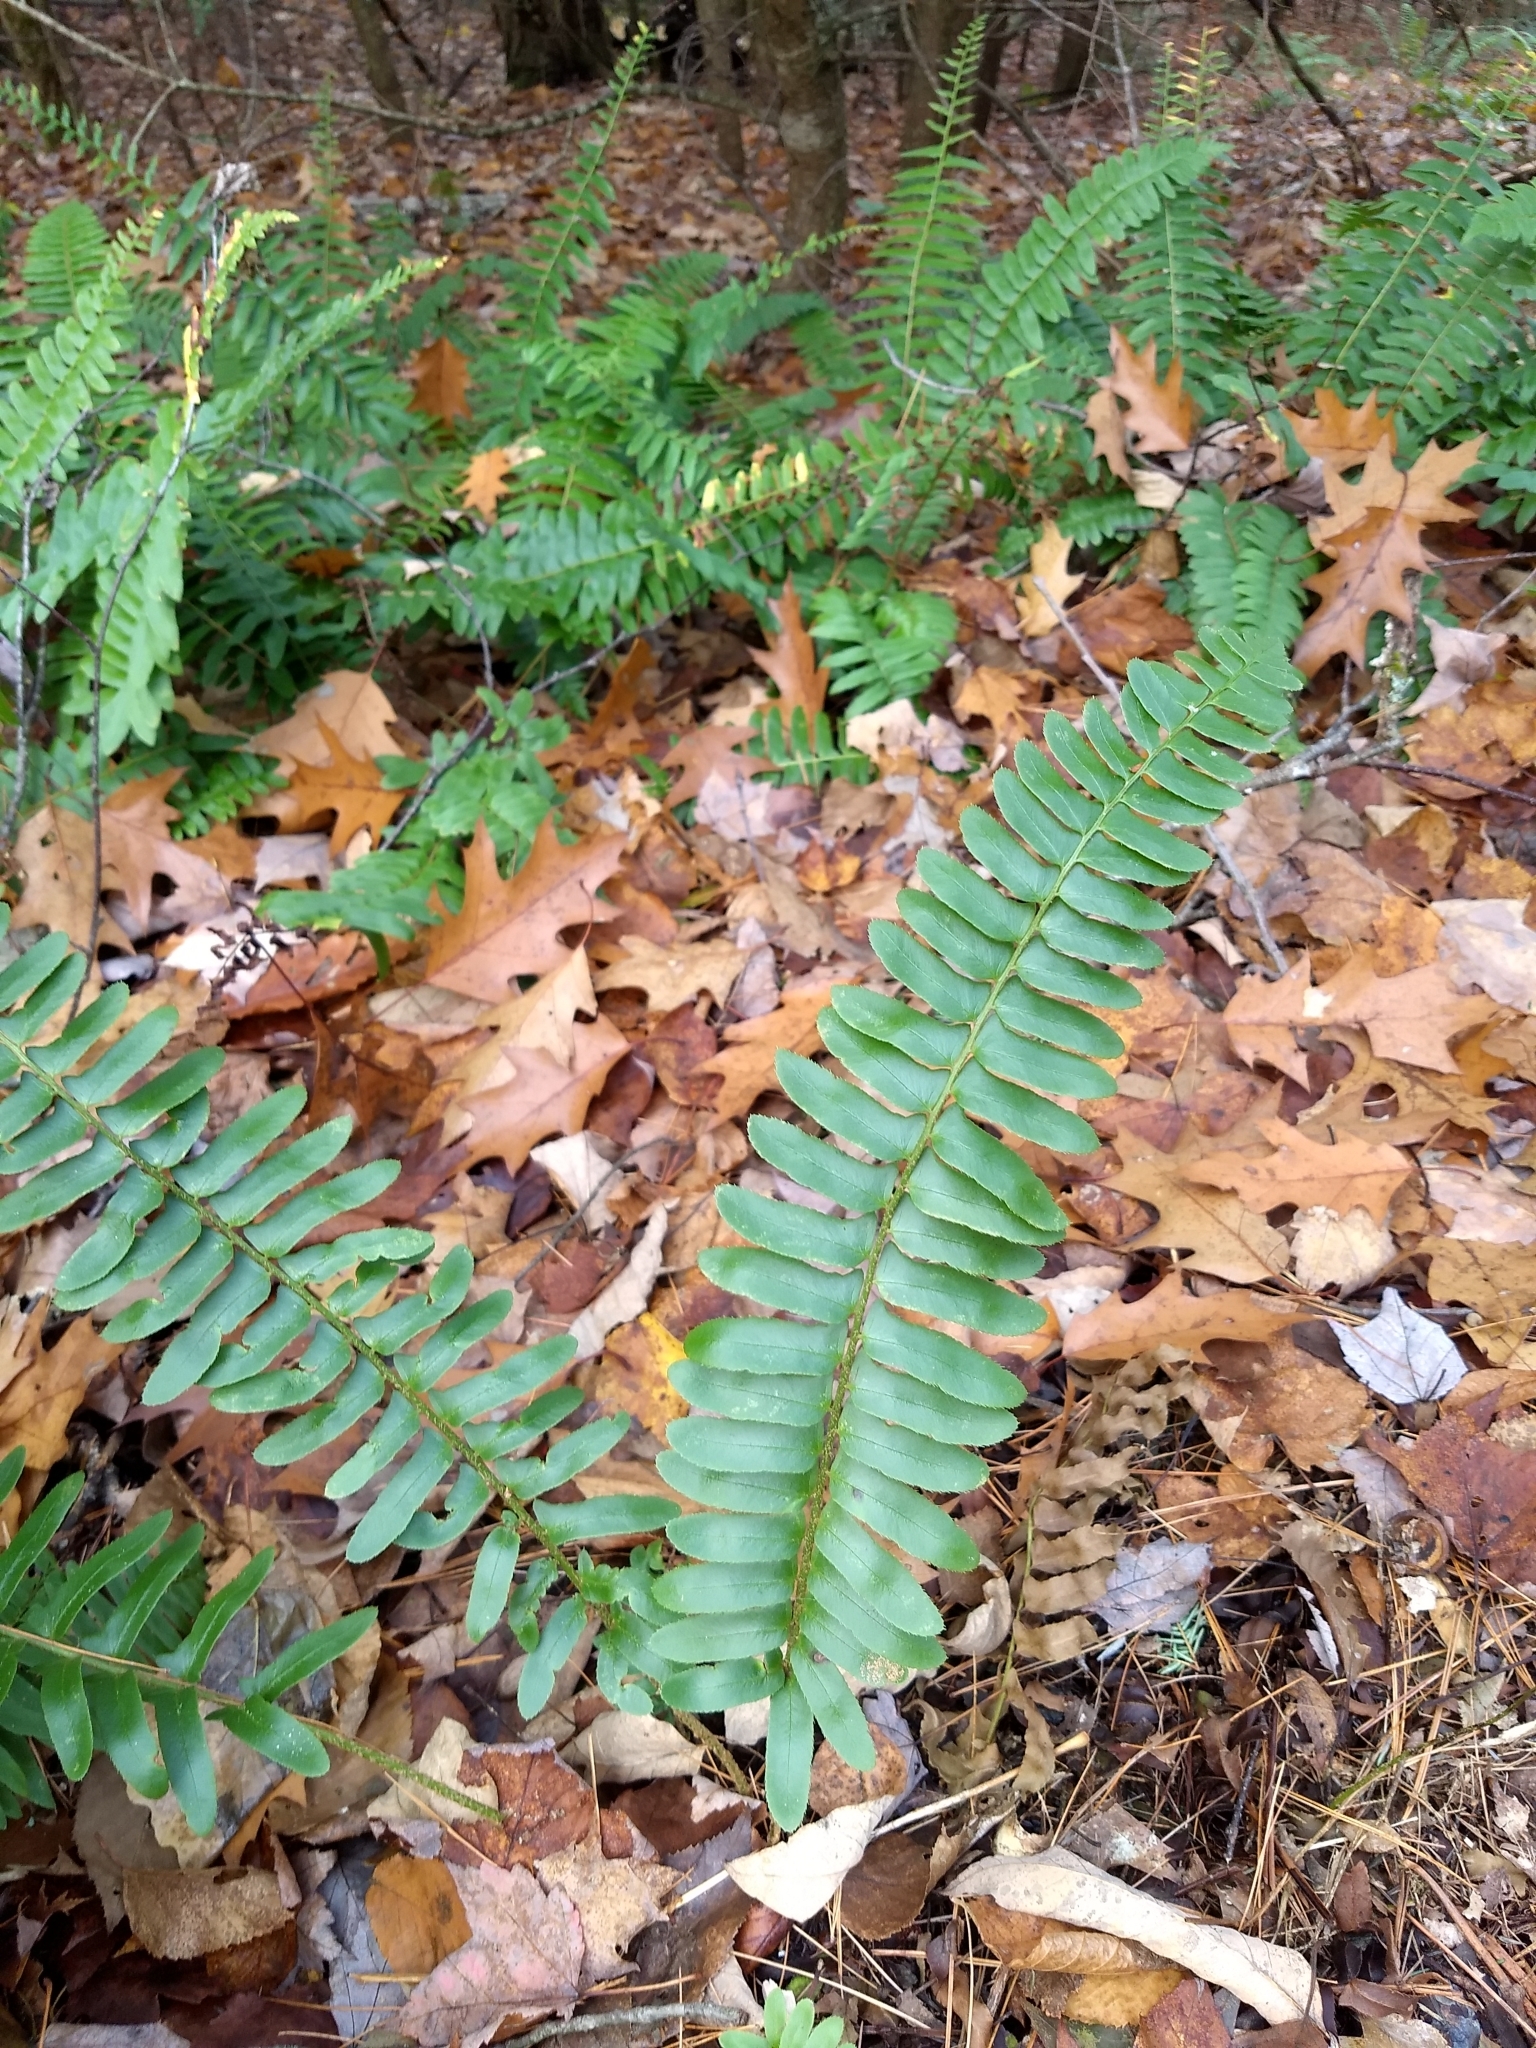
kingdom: Plantae
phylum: Tracheophyta
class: Polypodiopsida
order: Polypodiales
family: Dryopteridaceae
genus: Polystichum
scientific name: Polystichum acrostichoides
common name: Christmas fern
